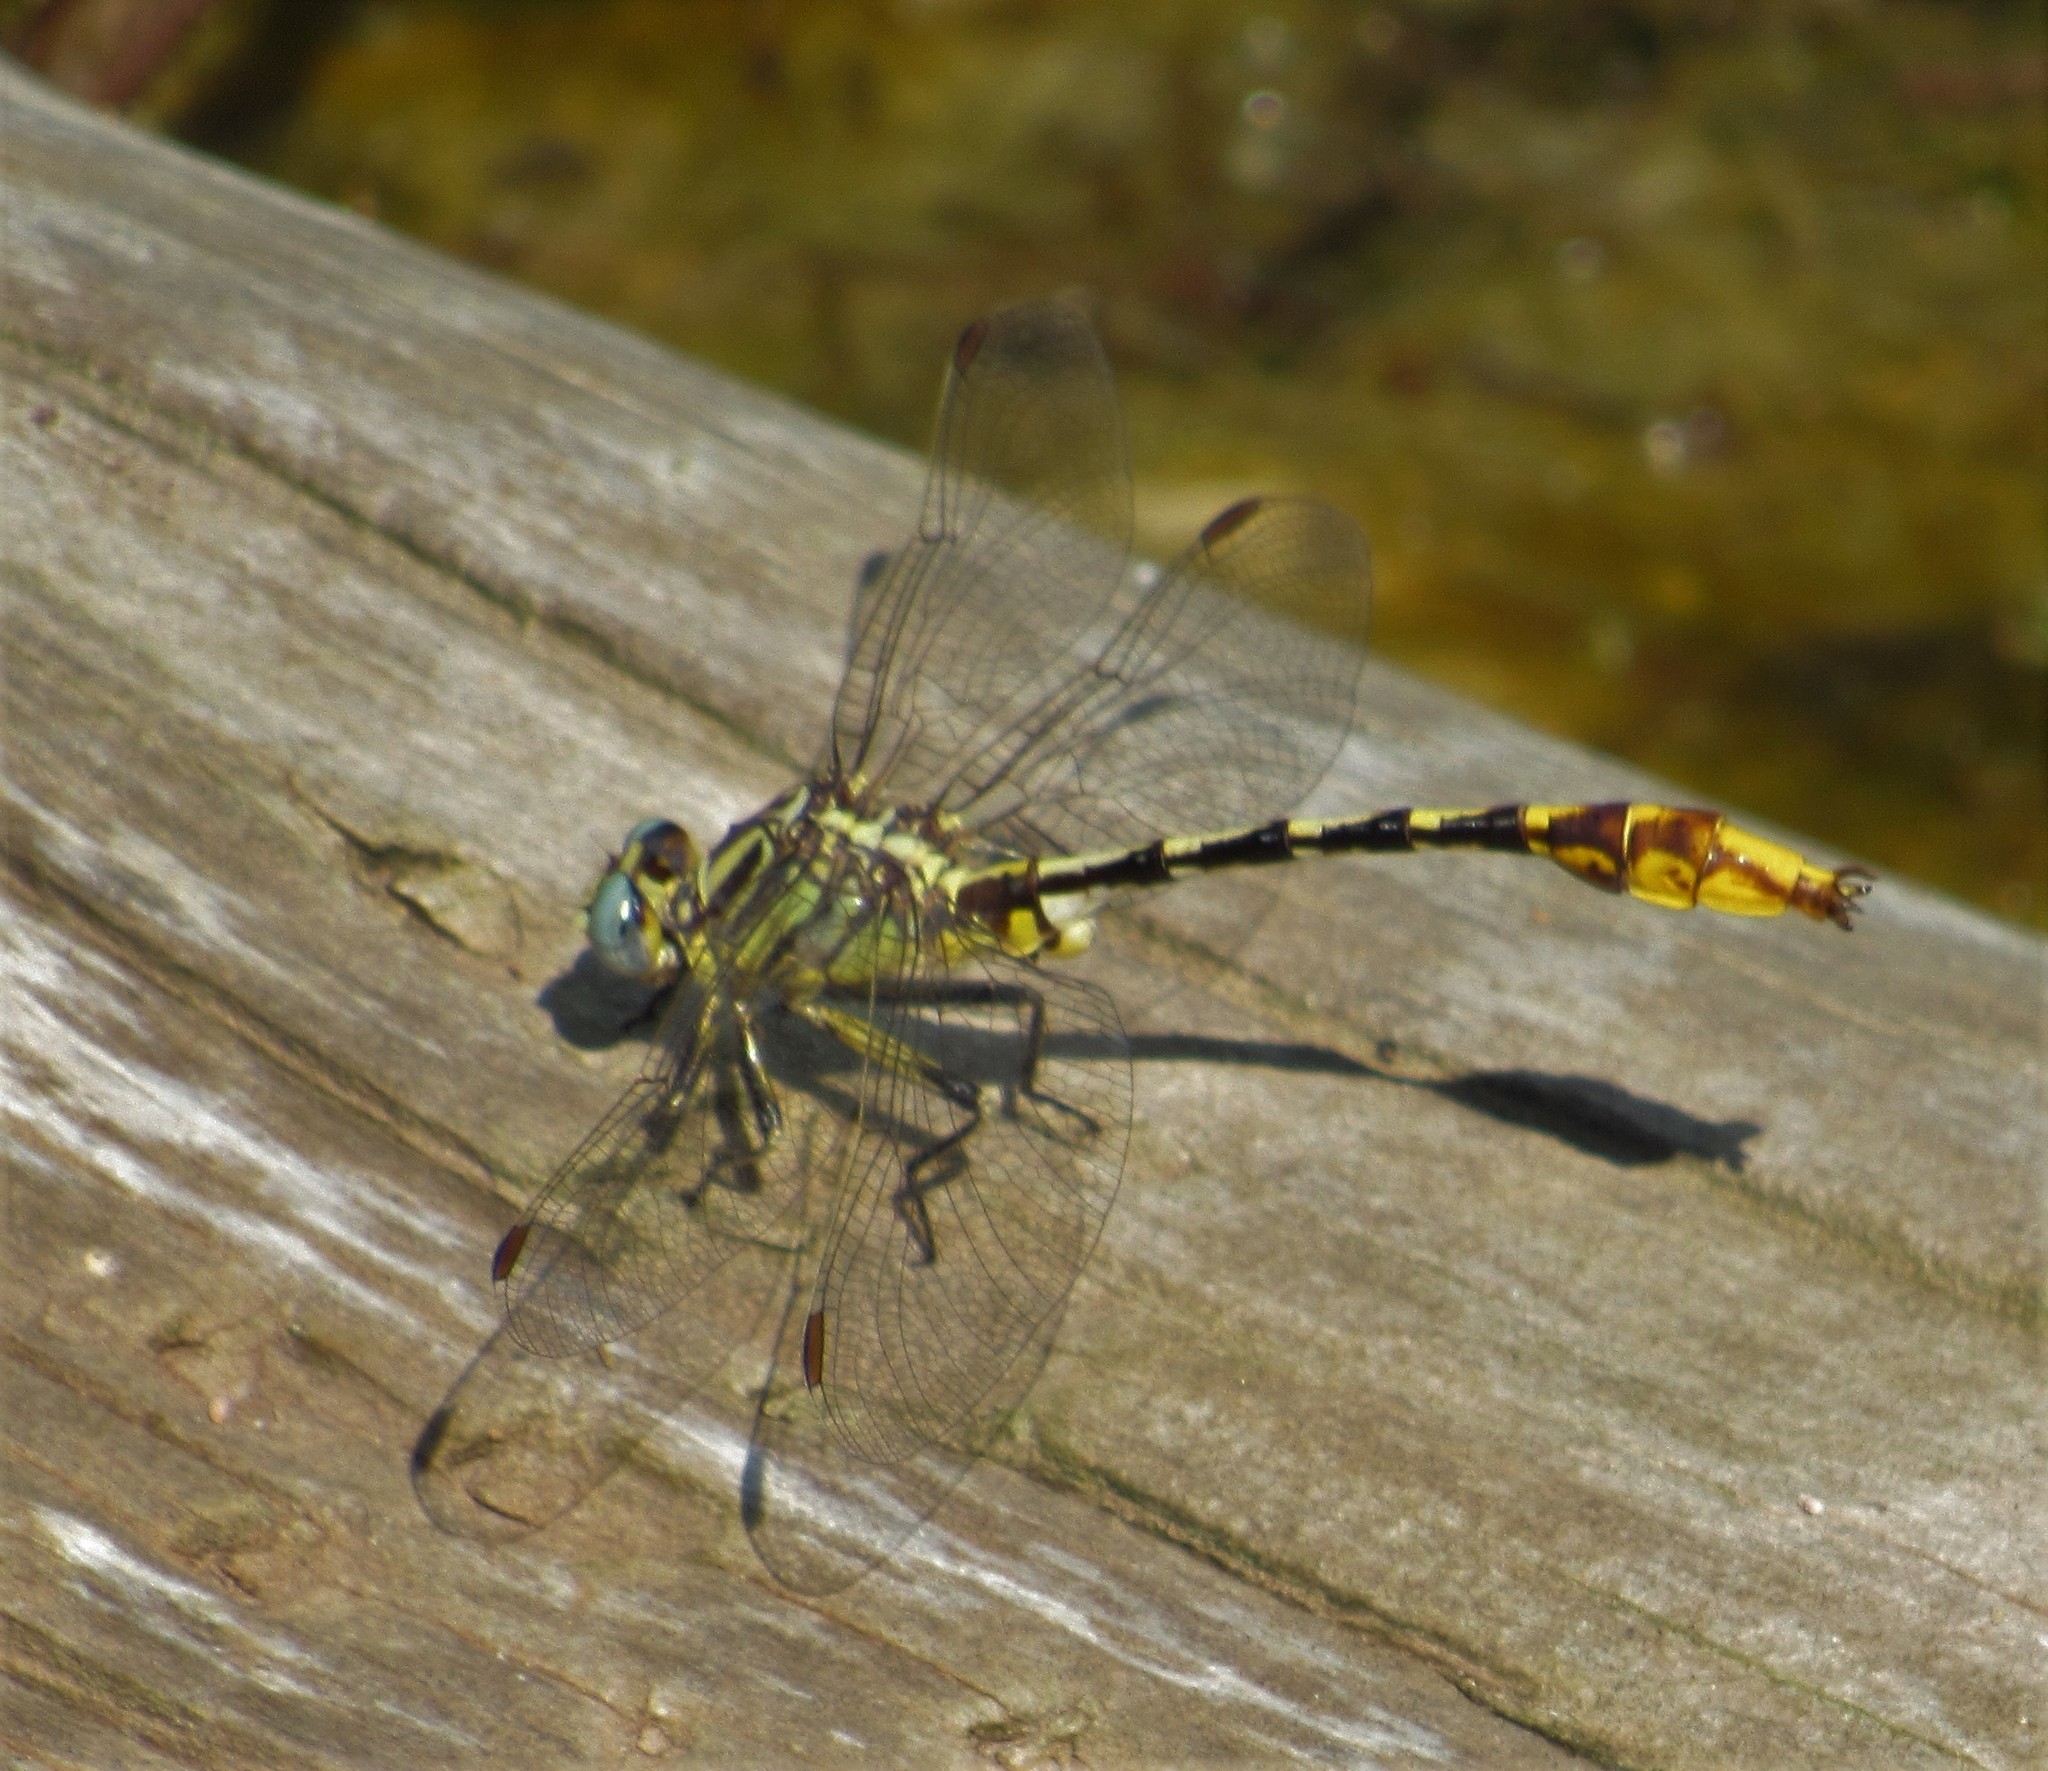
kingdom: Animalia
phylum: Arthropoda
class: Insecta
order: Odonata
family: Gomphidae
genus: Phanogomphus
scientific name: Phanogomphus militaris
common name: Sulphur-tipped clubtail
